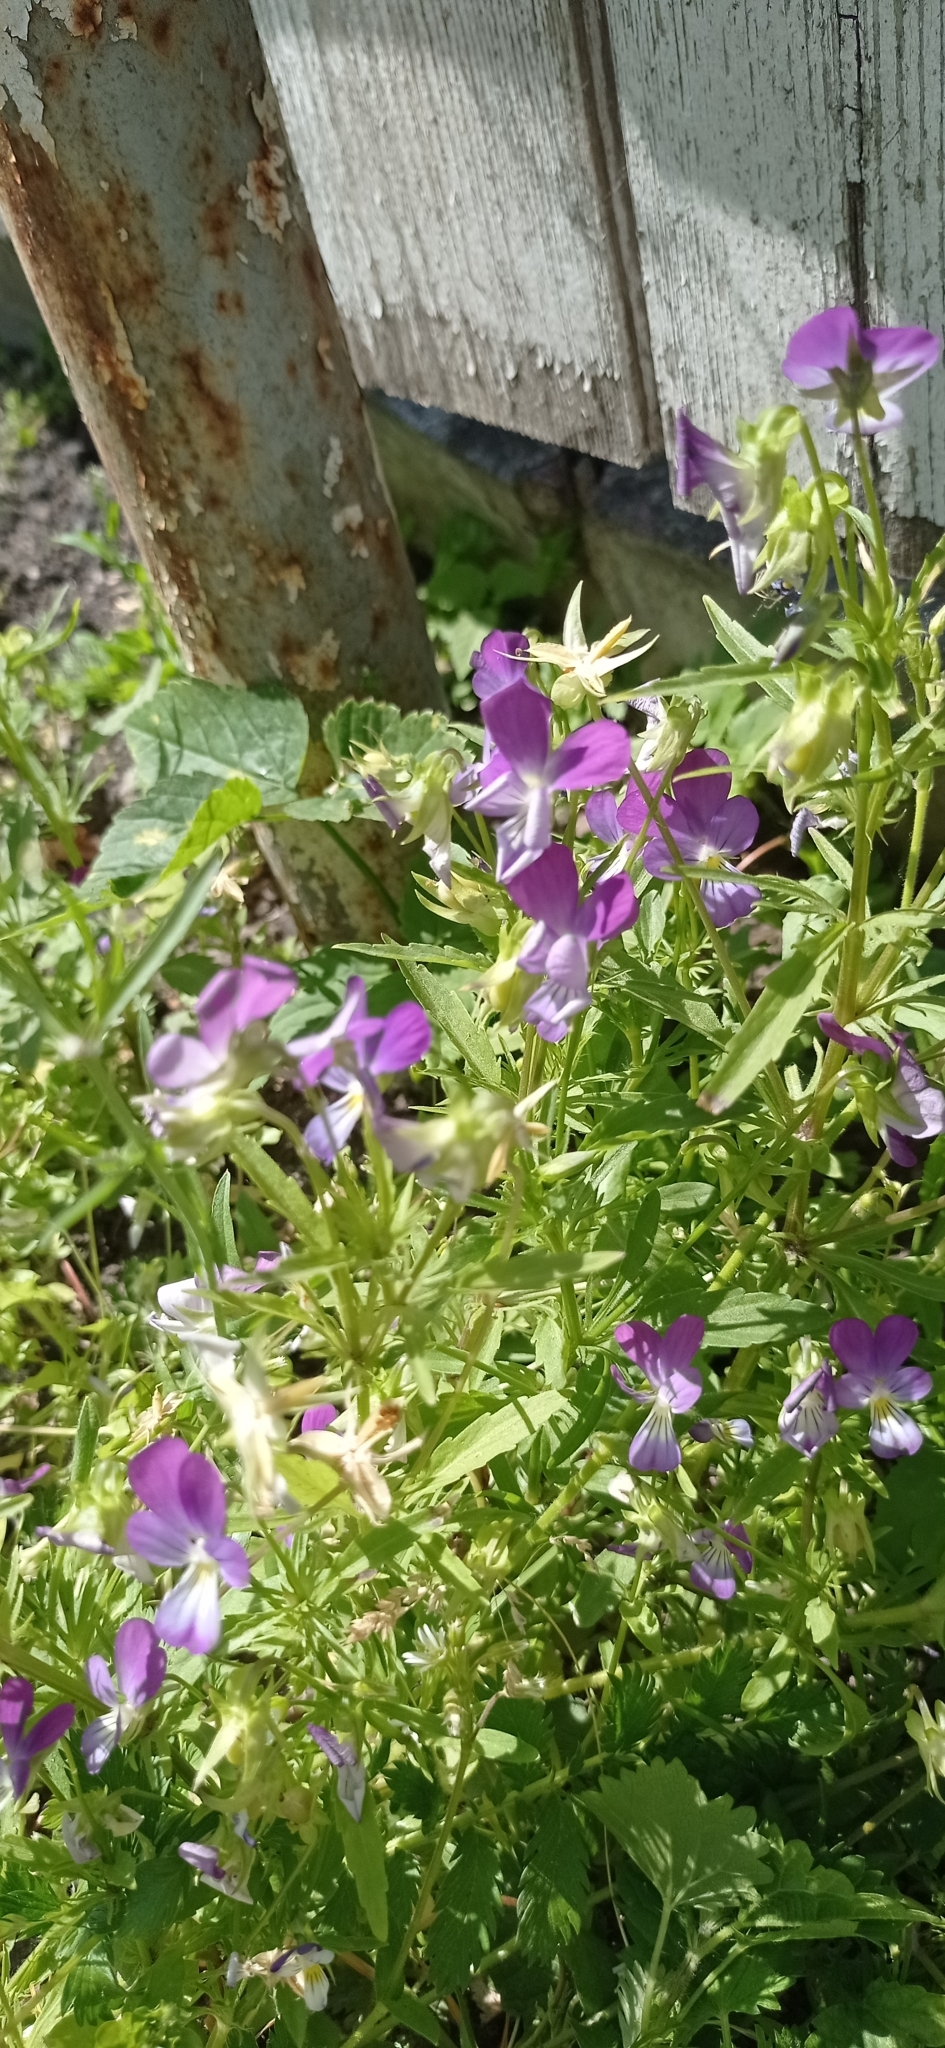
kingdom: Plantae
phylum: Tracheophyta
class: Magnoliopsida
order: Malpighiales
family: Violaceae
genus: Viola
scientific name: Viola tricolor
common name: Pansy
